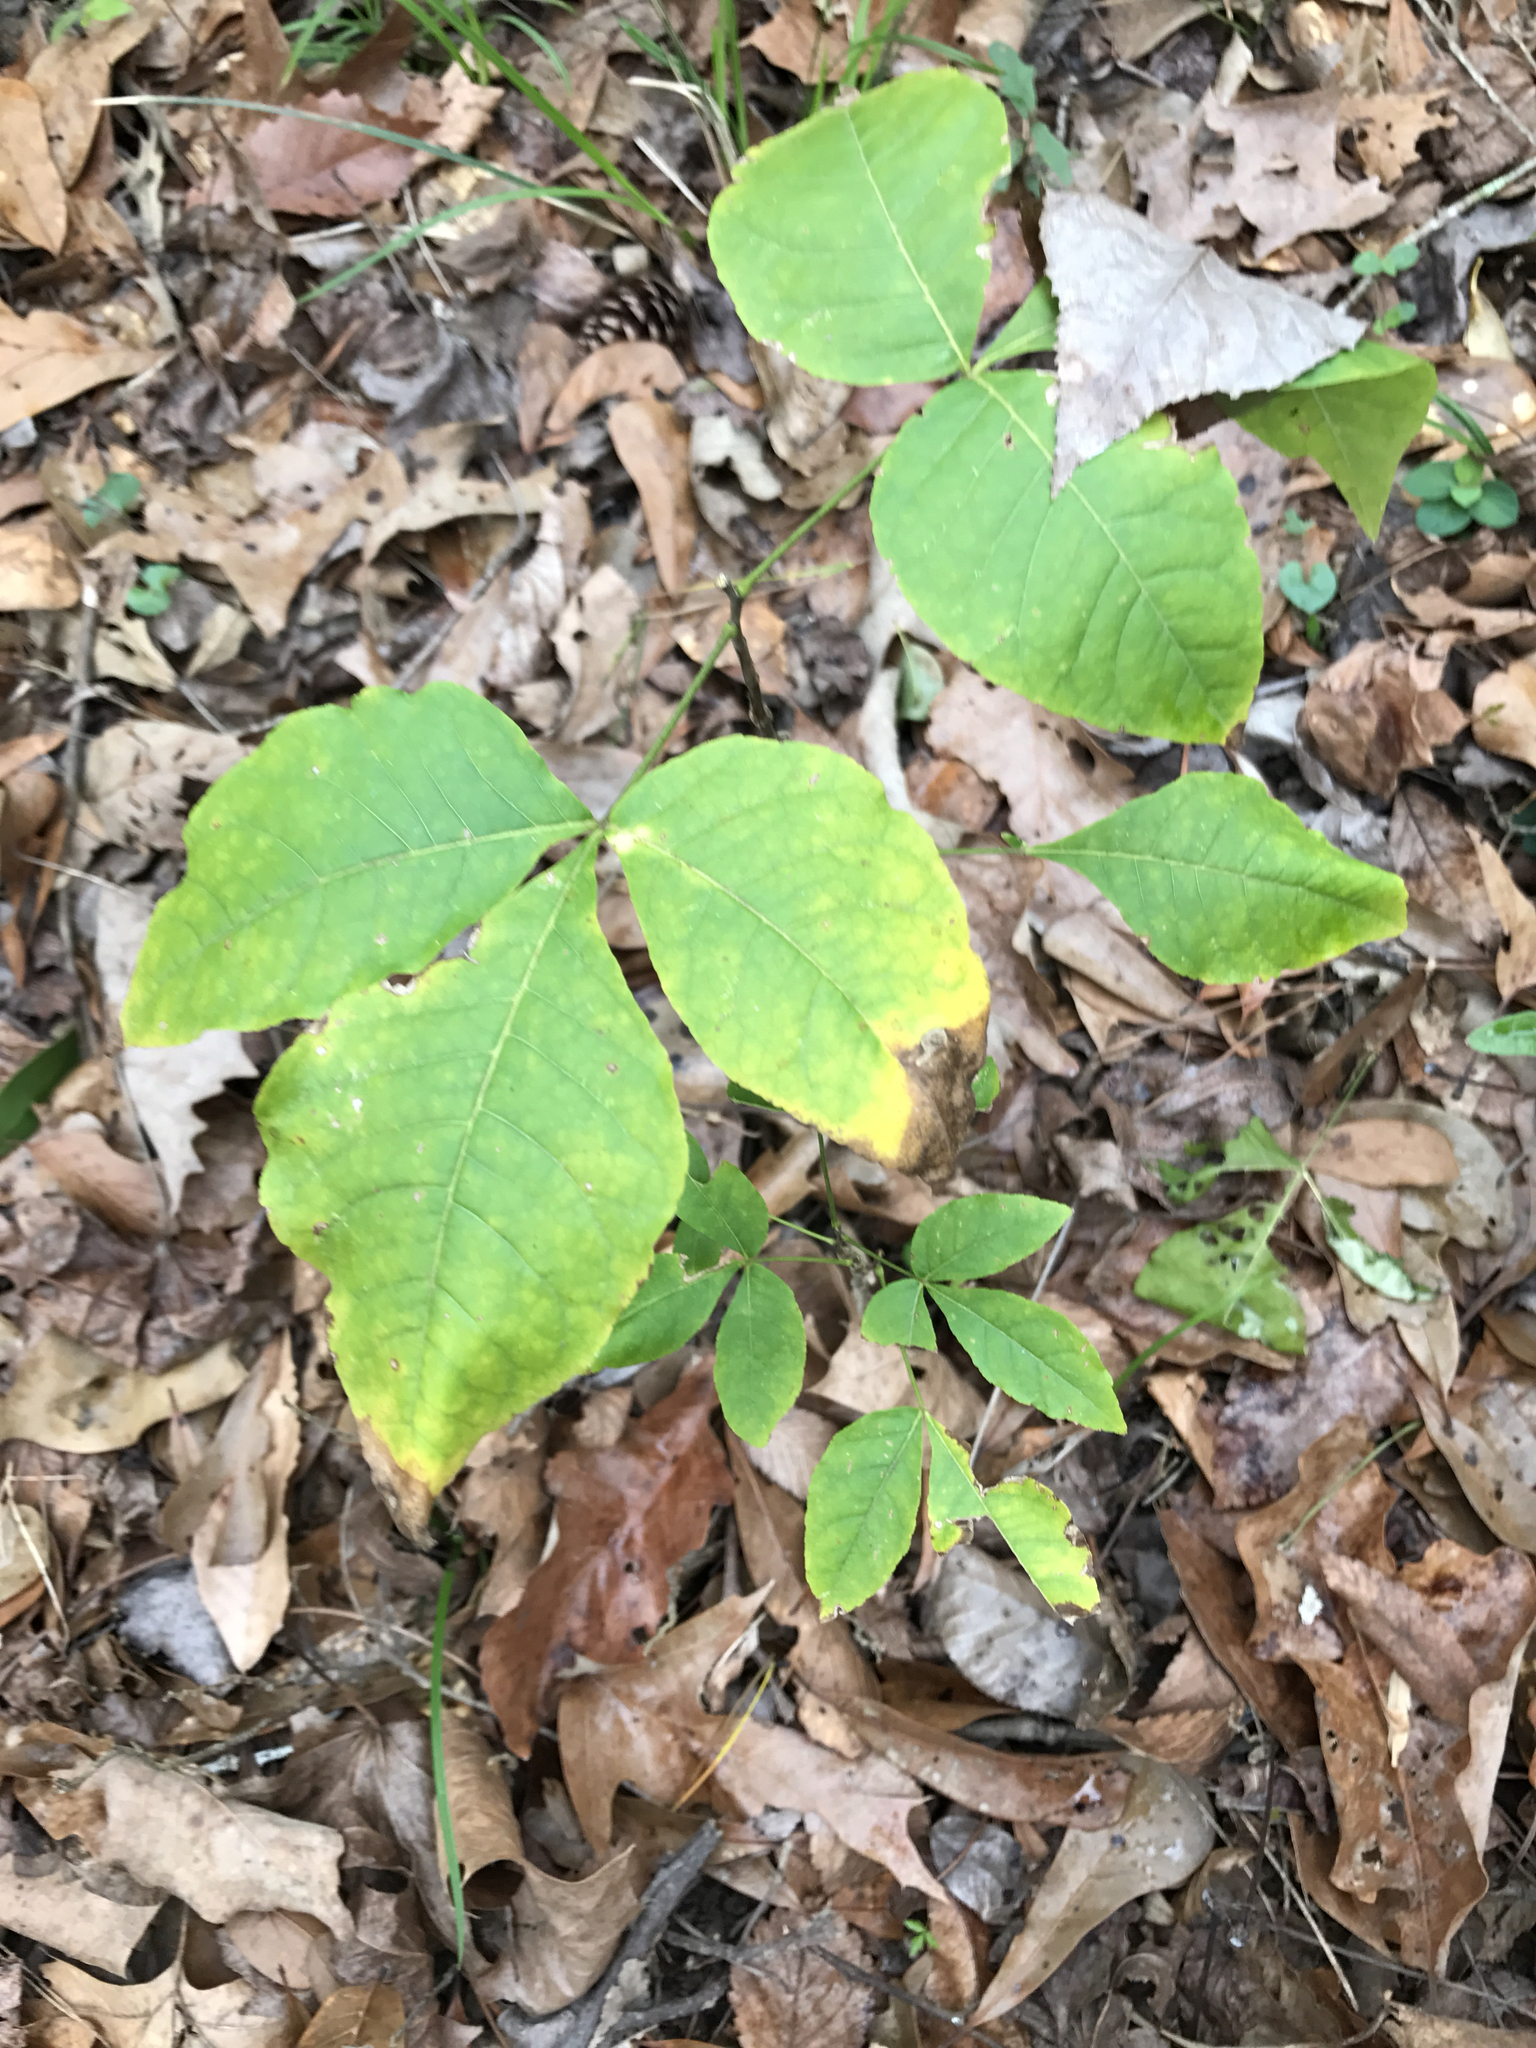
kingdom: Plantae
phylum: Tracheophyta
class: Magnoliopsida
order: Sapindales
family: Rutaceae
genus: Ptelea
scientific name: Ptelea trifoliata
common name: Common hop-tree
